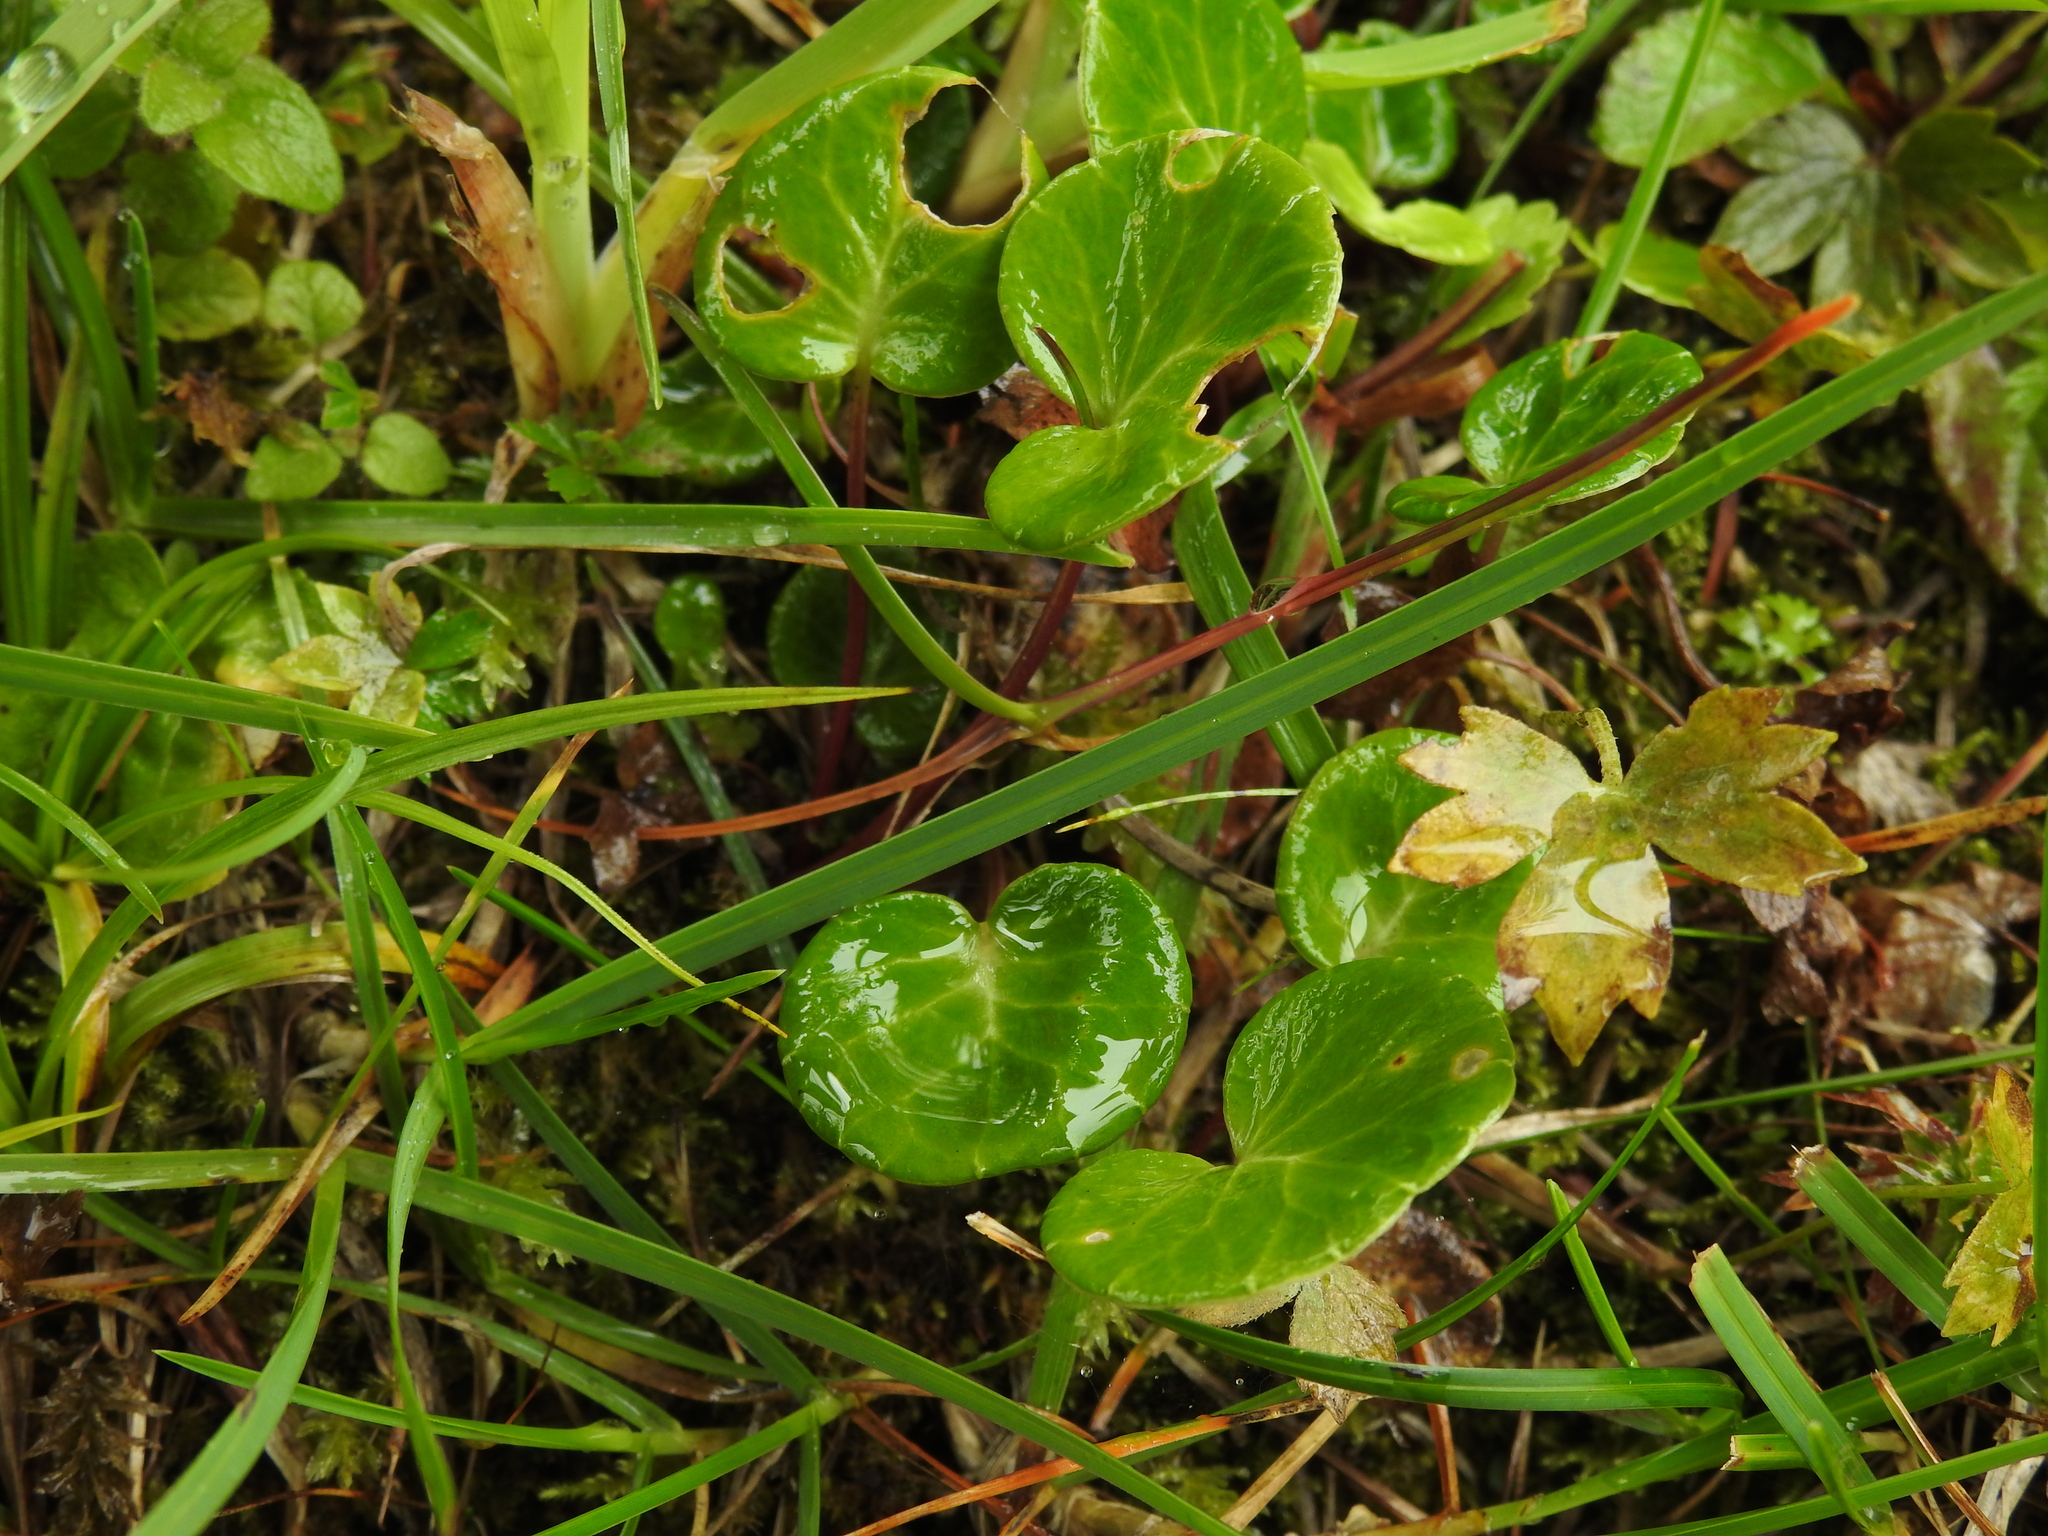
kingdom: Plantae
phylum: Tracheophyta
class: Magnoliopsida
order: Ericales
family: Primulaceae
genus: Soldanella
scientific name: Soldanella alpina
